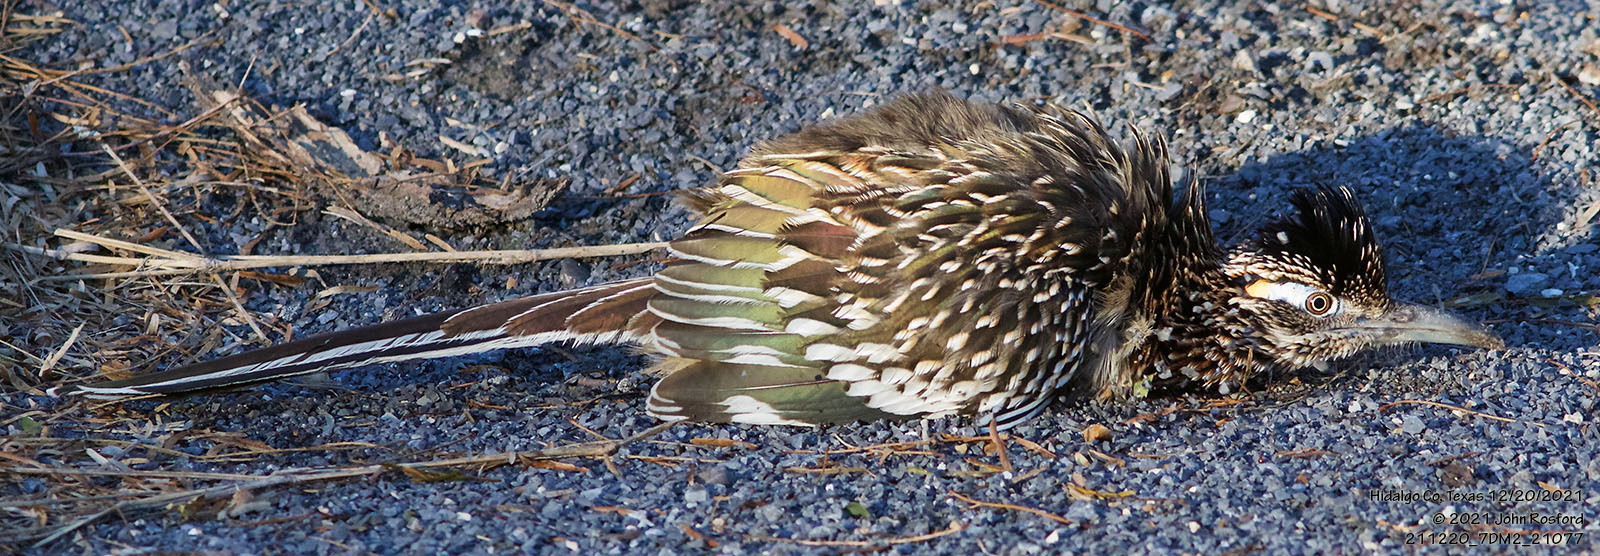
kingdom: Animalia
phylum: Chordata
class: Aves
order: Cuculiformes
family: Cuculidae
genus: Geococcyx
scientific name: Geococcyx californianus
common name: Greater roadrunner
